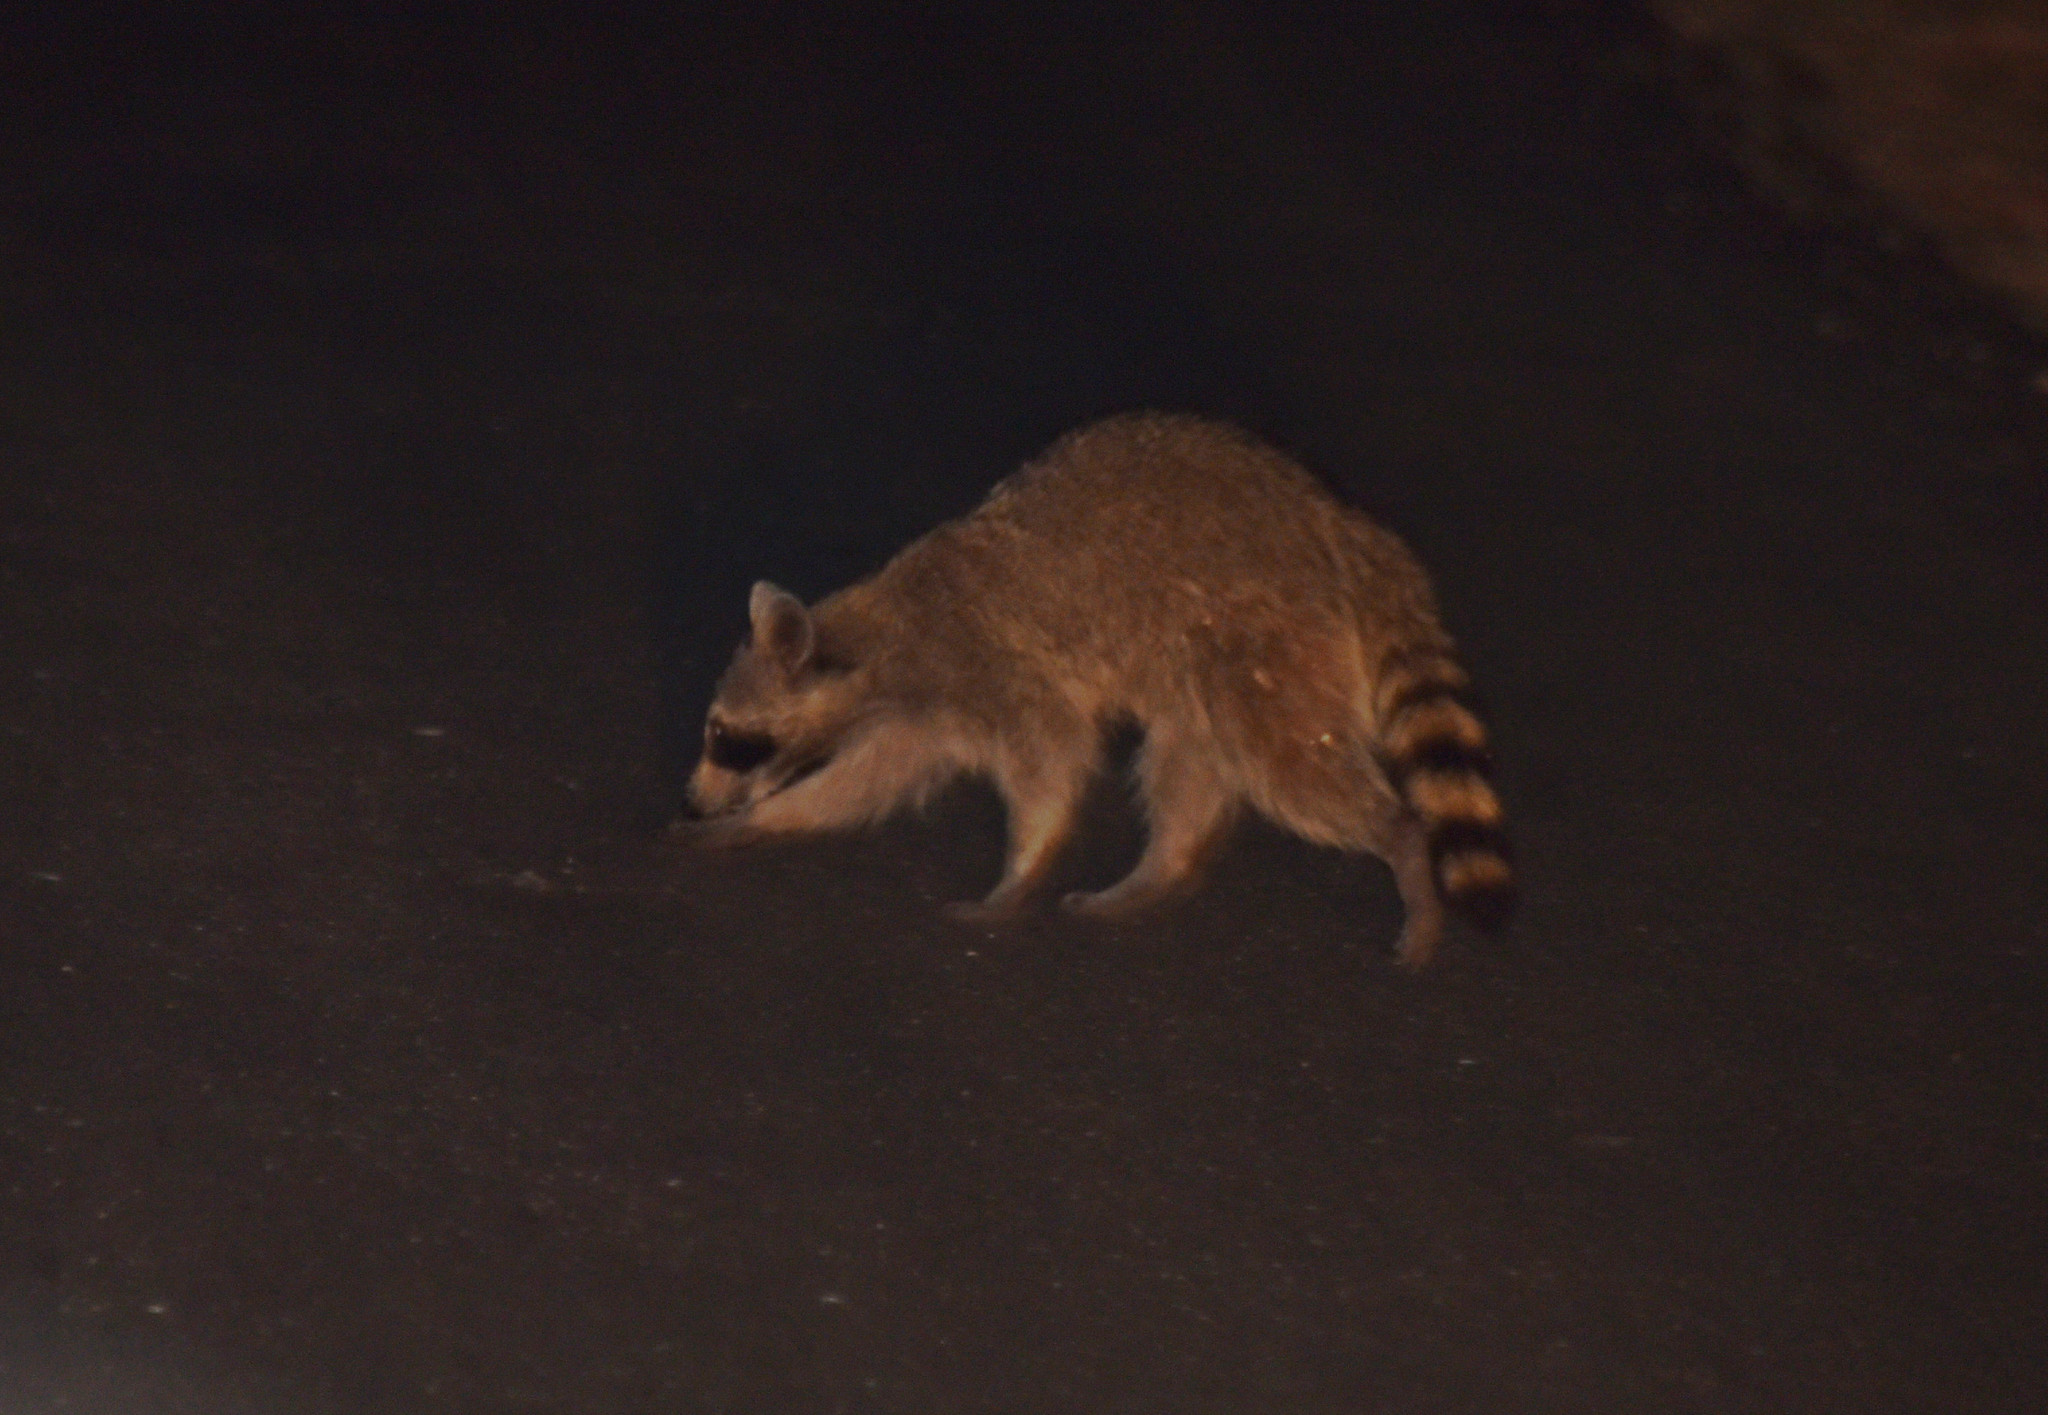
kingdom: Animalia
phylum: Chordata
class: Mammalia
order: Carnivora
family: Procyonidae
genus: Procyon
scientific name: Procyon lotor
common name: Raccoon
